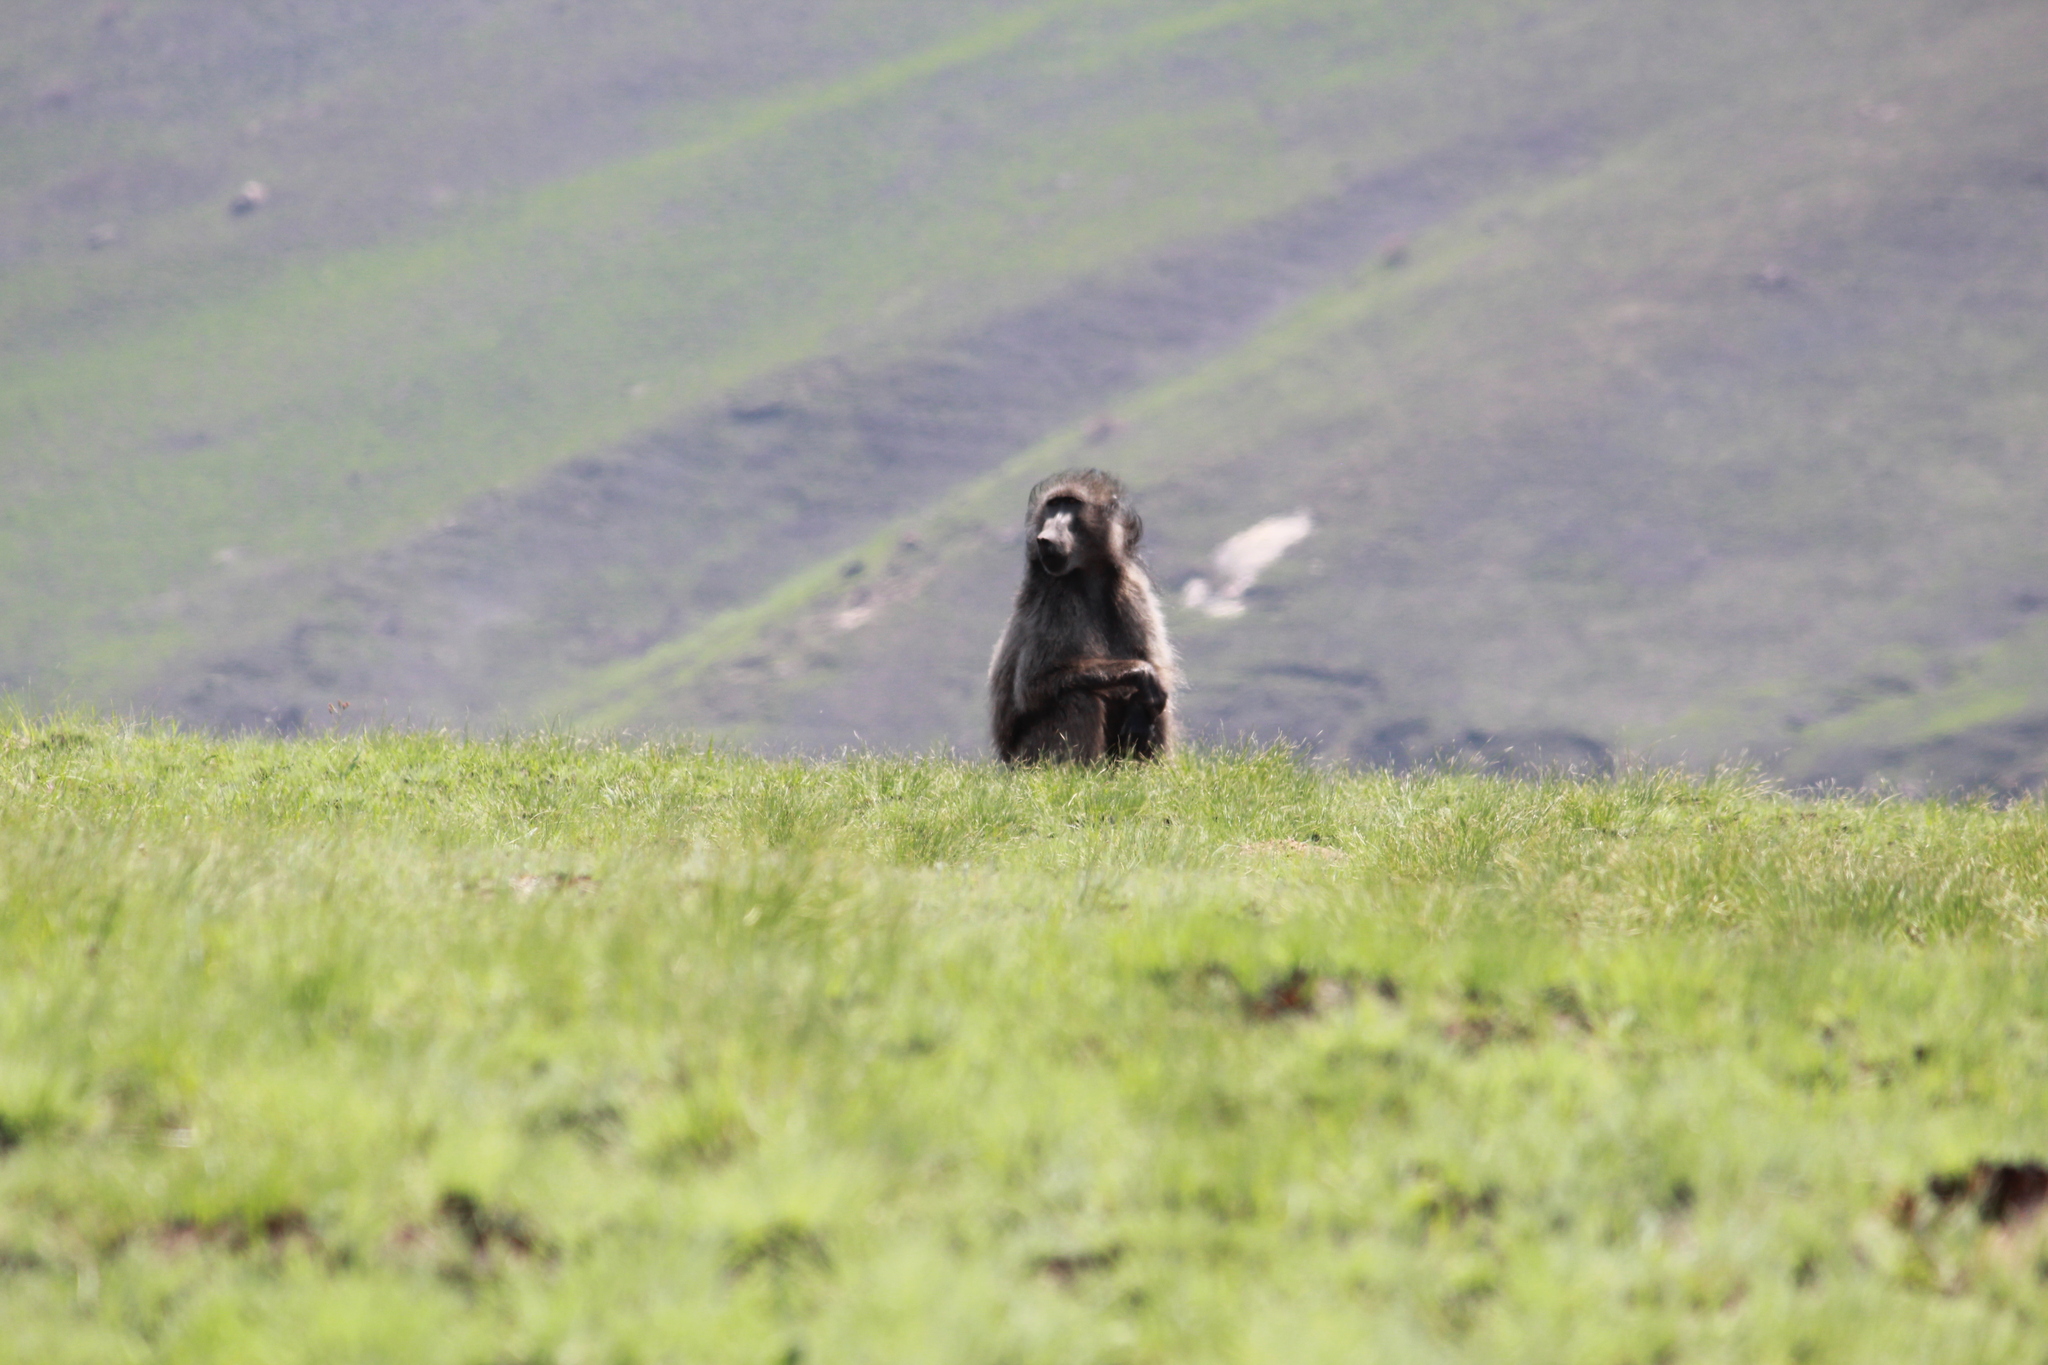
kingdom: Animalia
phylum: Chordata
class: Mammalia
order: Primates
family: Cercopithecidae
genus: Papio
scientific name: Papio ursinus
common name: Chacma baboon
